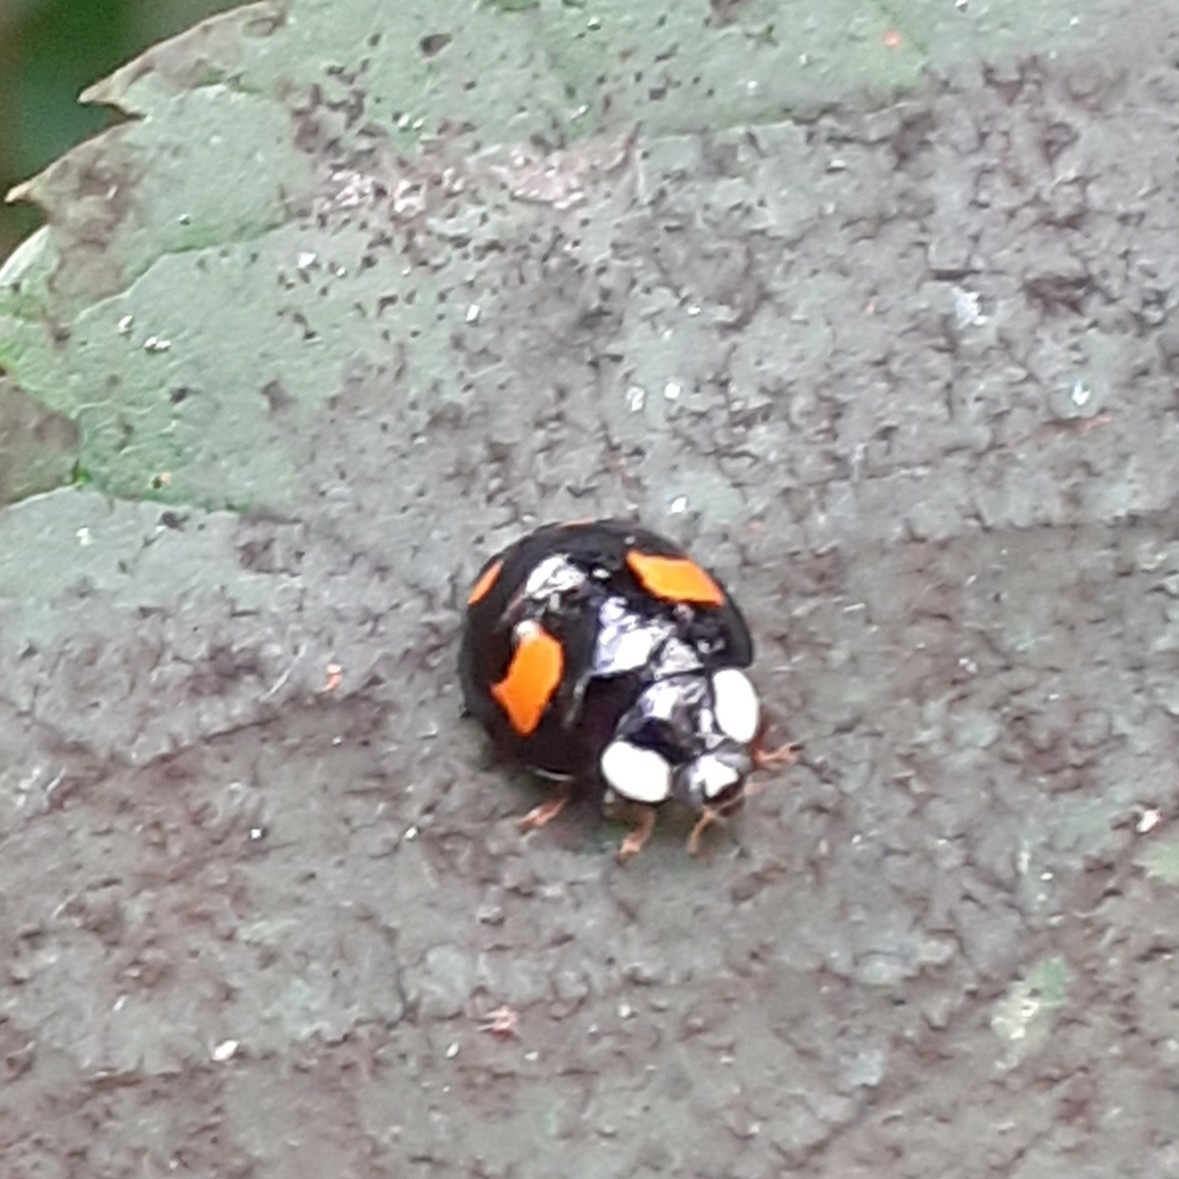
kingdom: Animalia
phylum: Arthropoda
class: Insecta
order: Coleoptera
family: Coccinellidae
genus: Harmonia
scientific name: Harmonia axyridis
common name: Harlequin ladybird
